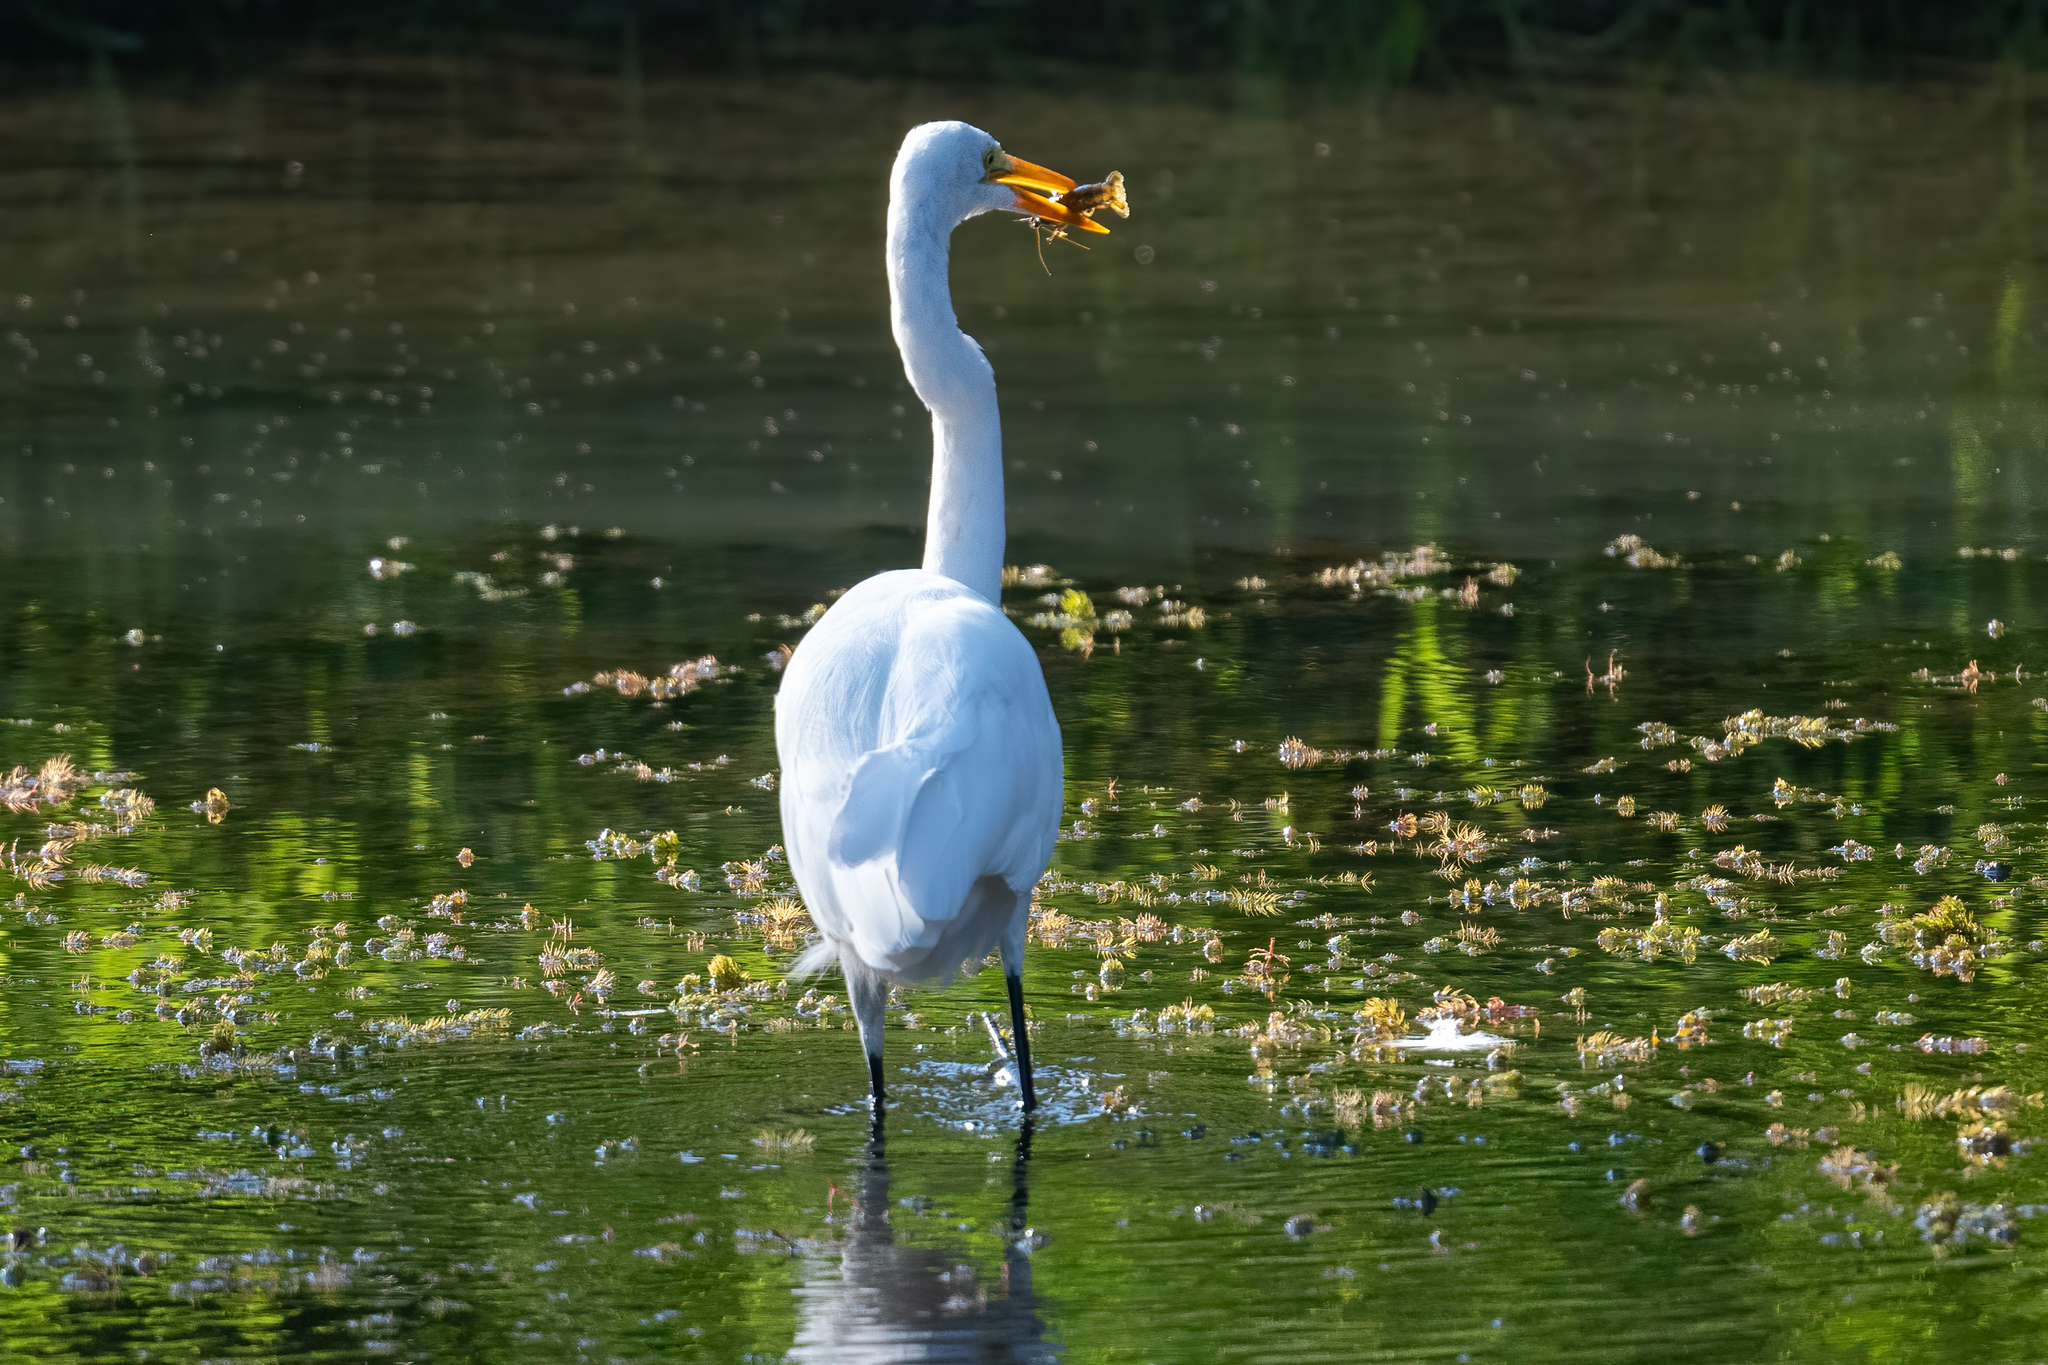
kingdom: Animalia
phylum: Chordata
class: Aves
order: Pelecaniformes
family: Ardeidae
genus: Ardea
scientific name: Ardea alba
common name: Great egret
